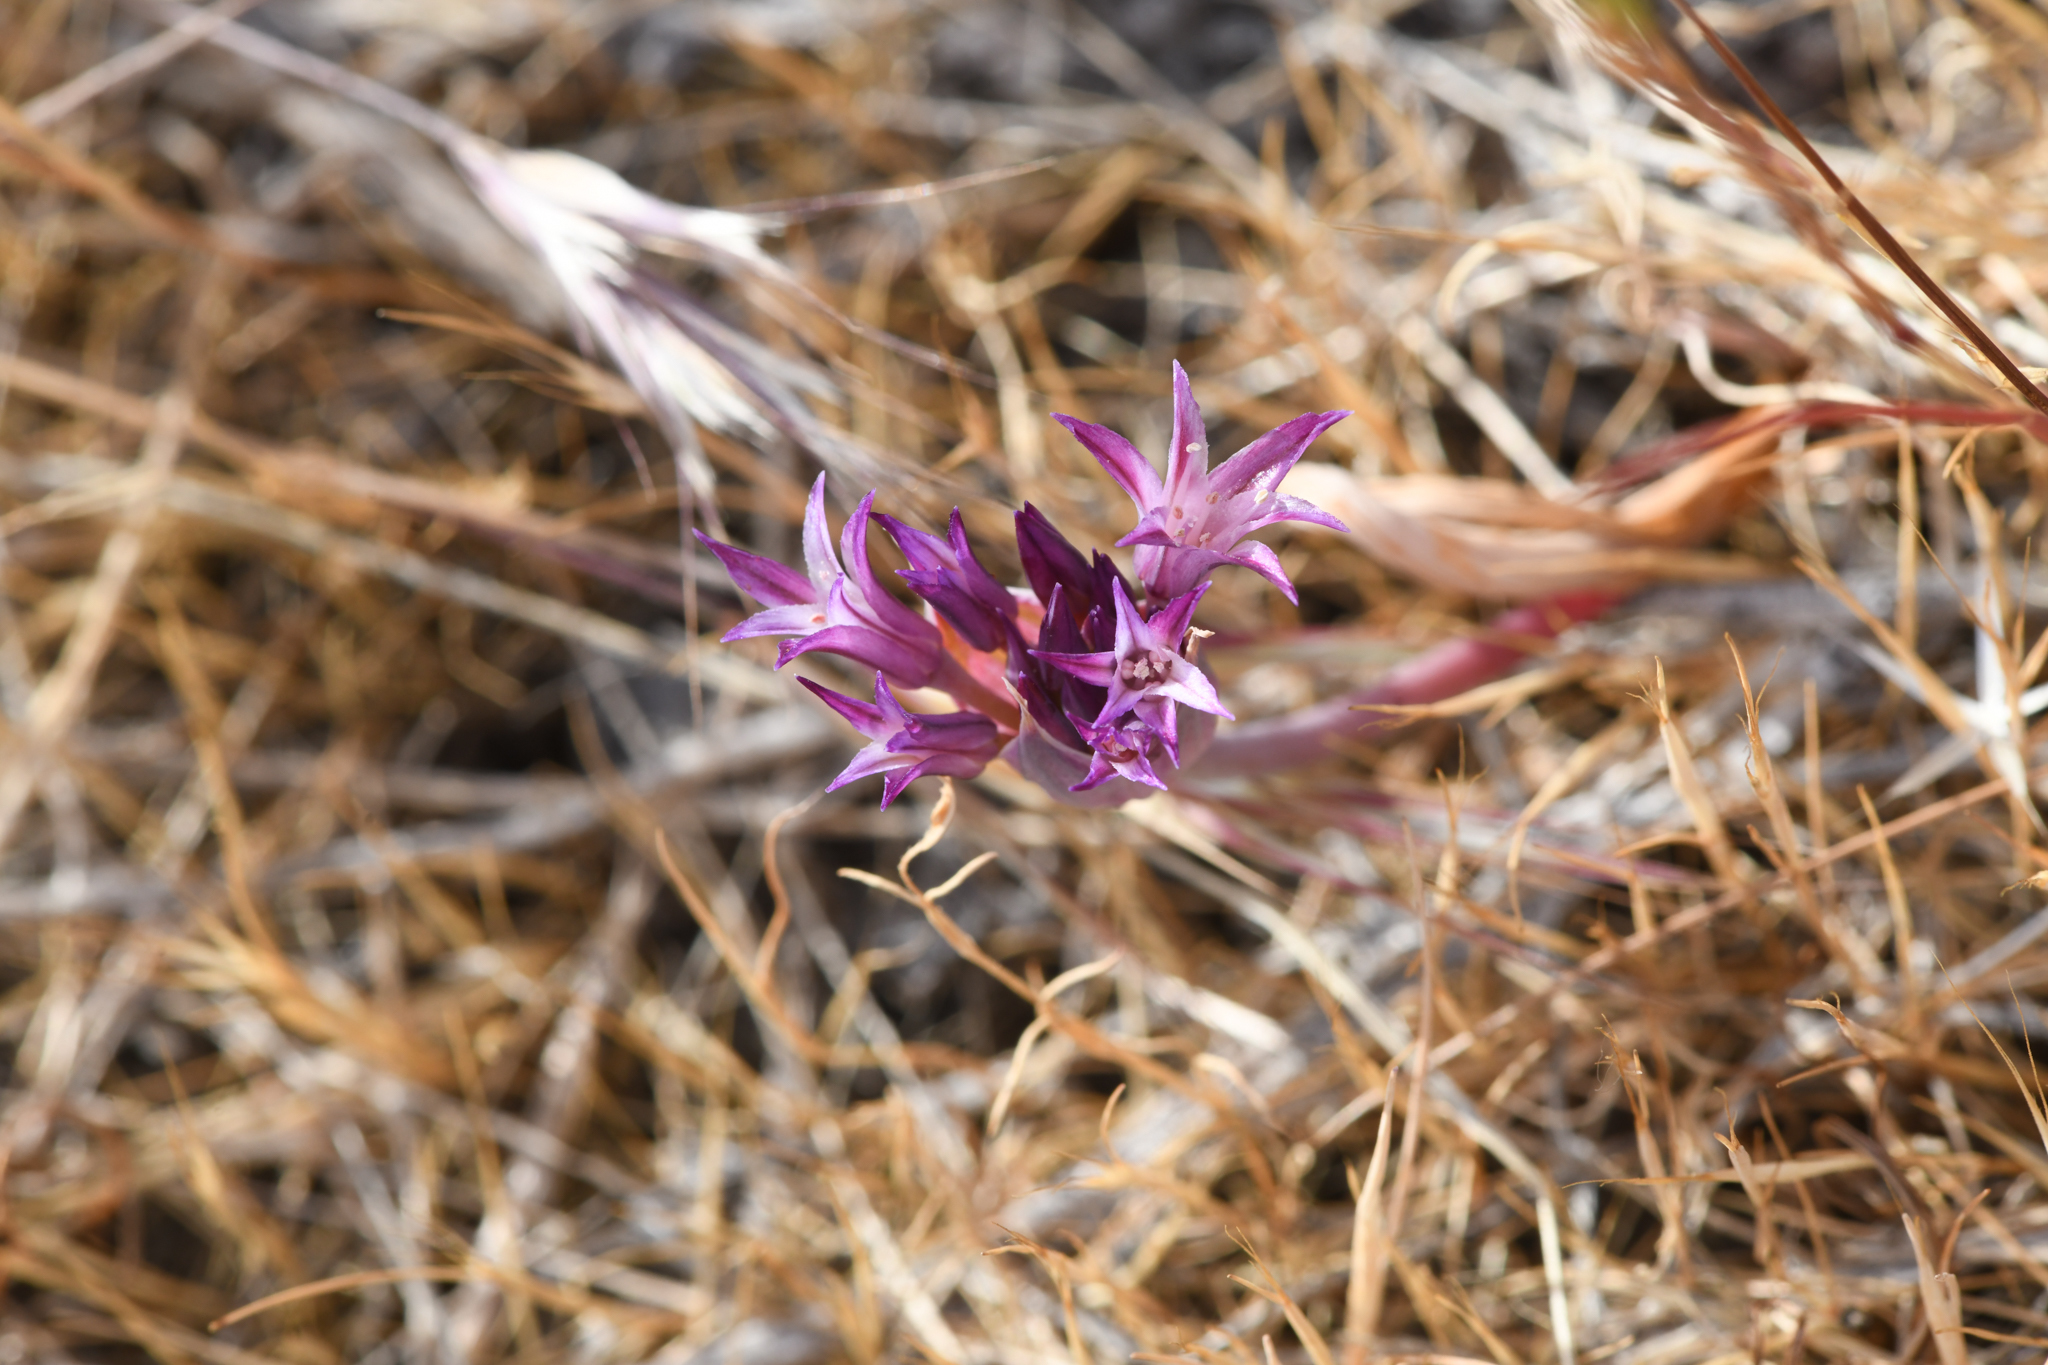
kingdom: Plantae
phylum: Tracheophyta
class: Liliopsida
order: Asparagales
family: Amaryllidaceae
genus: Allium
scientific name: Allium abramsii
